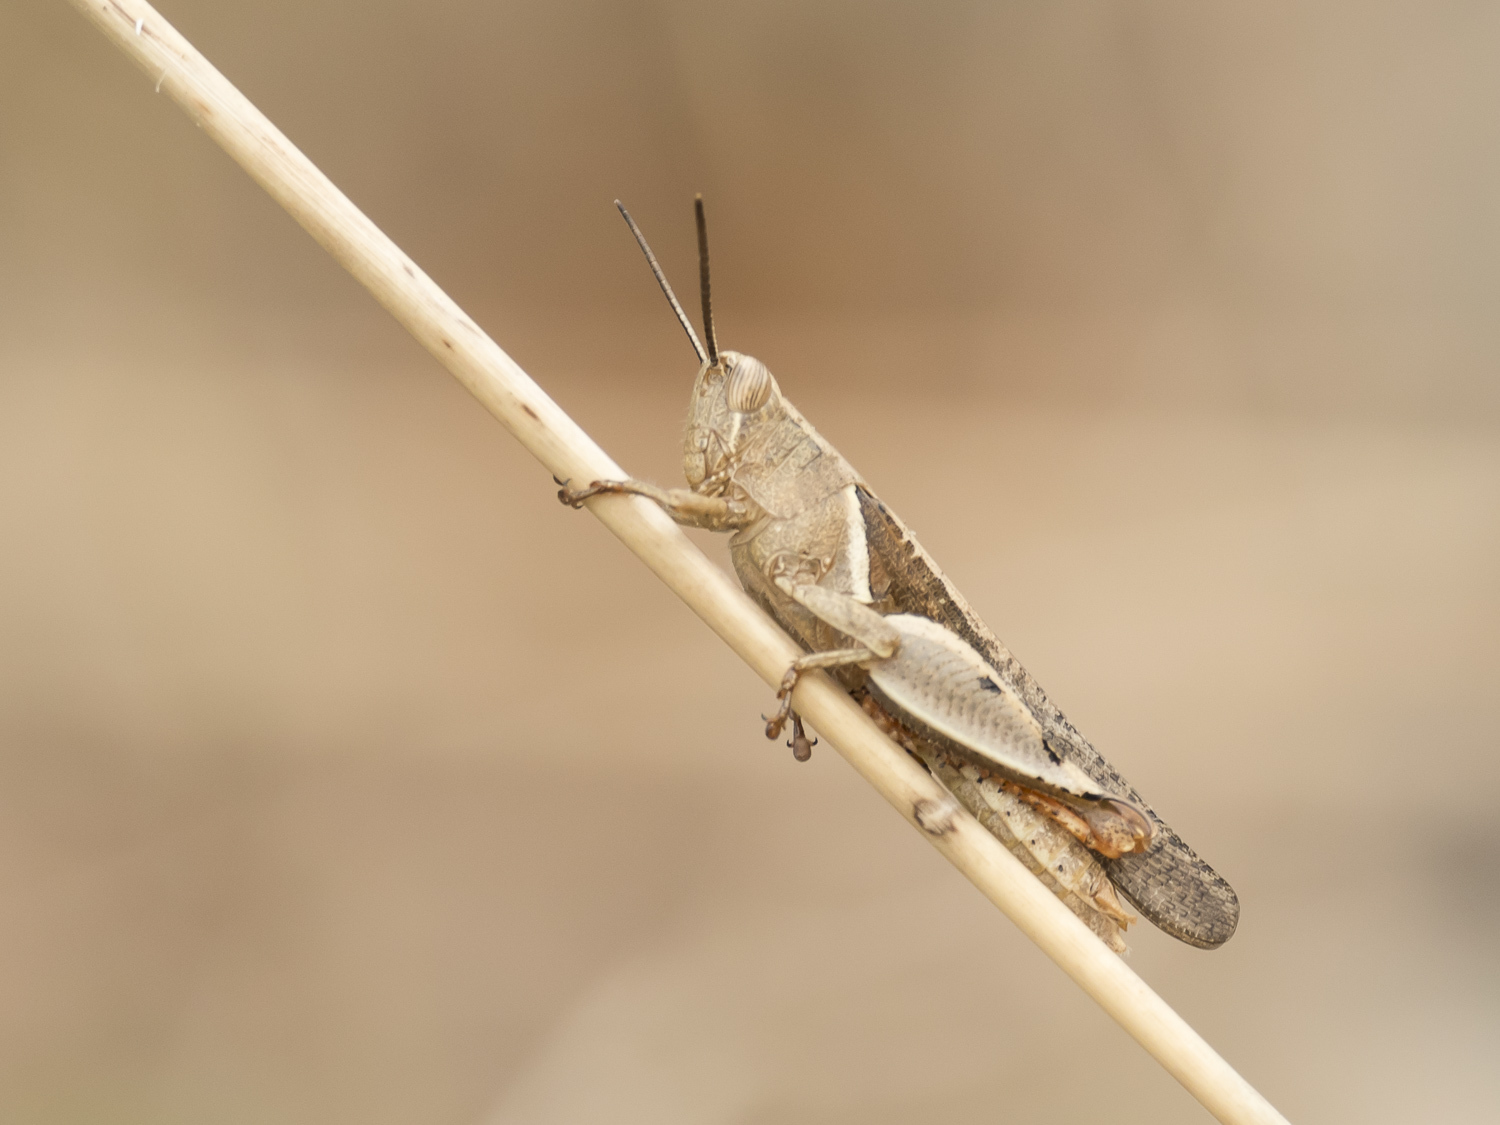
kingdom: Animalia
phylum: Arthropoda
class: Insecta
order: Orthoptera
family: Acrididae
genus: Diabolocatantops
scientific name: Diabolocatantops pinguis
